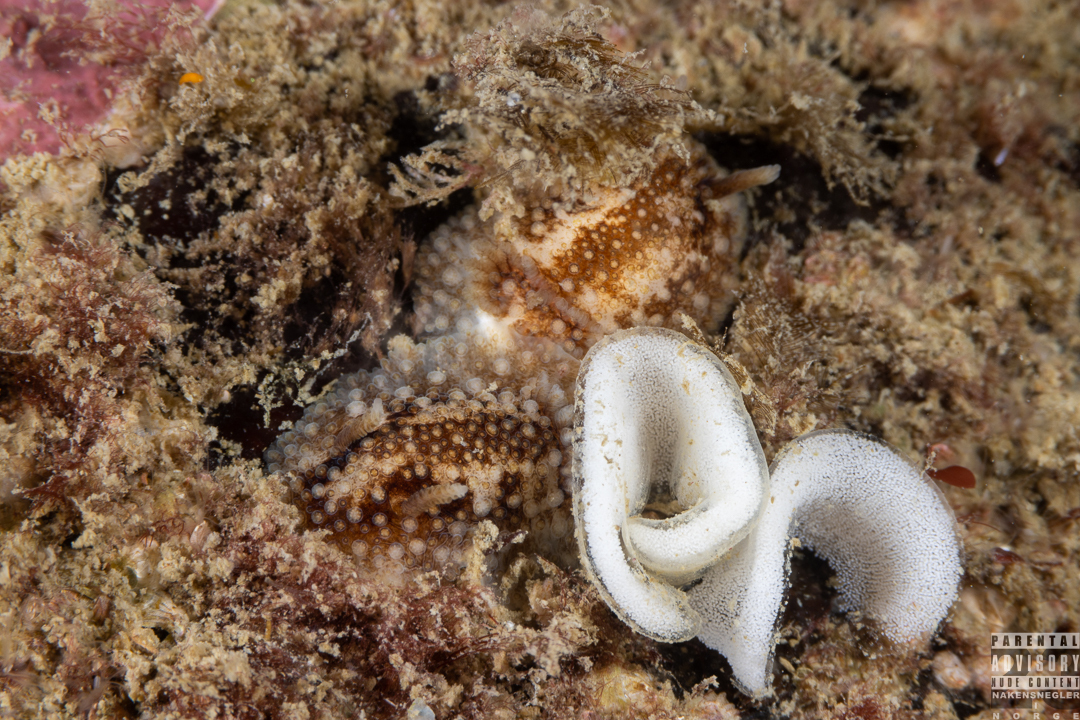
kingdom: Animalia
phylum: Mollusca
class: Gastropoda
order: Nudibranchia
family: Onchidorididae
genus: Onchidoris
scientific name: Onchidoris bilamellata
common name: Barnacle-eating onchidoris
